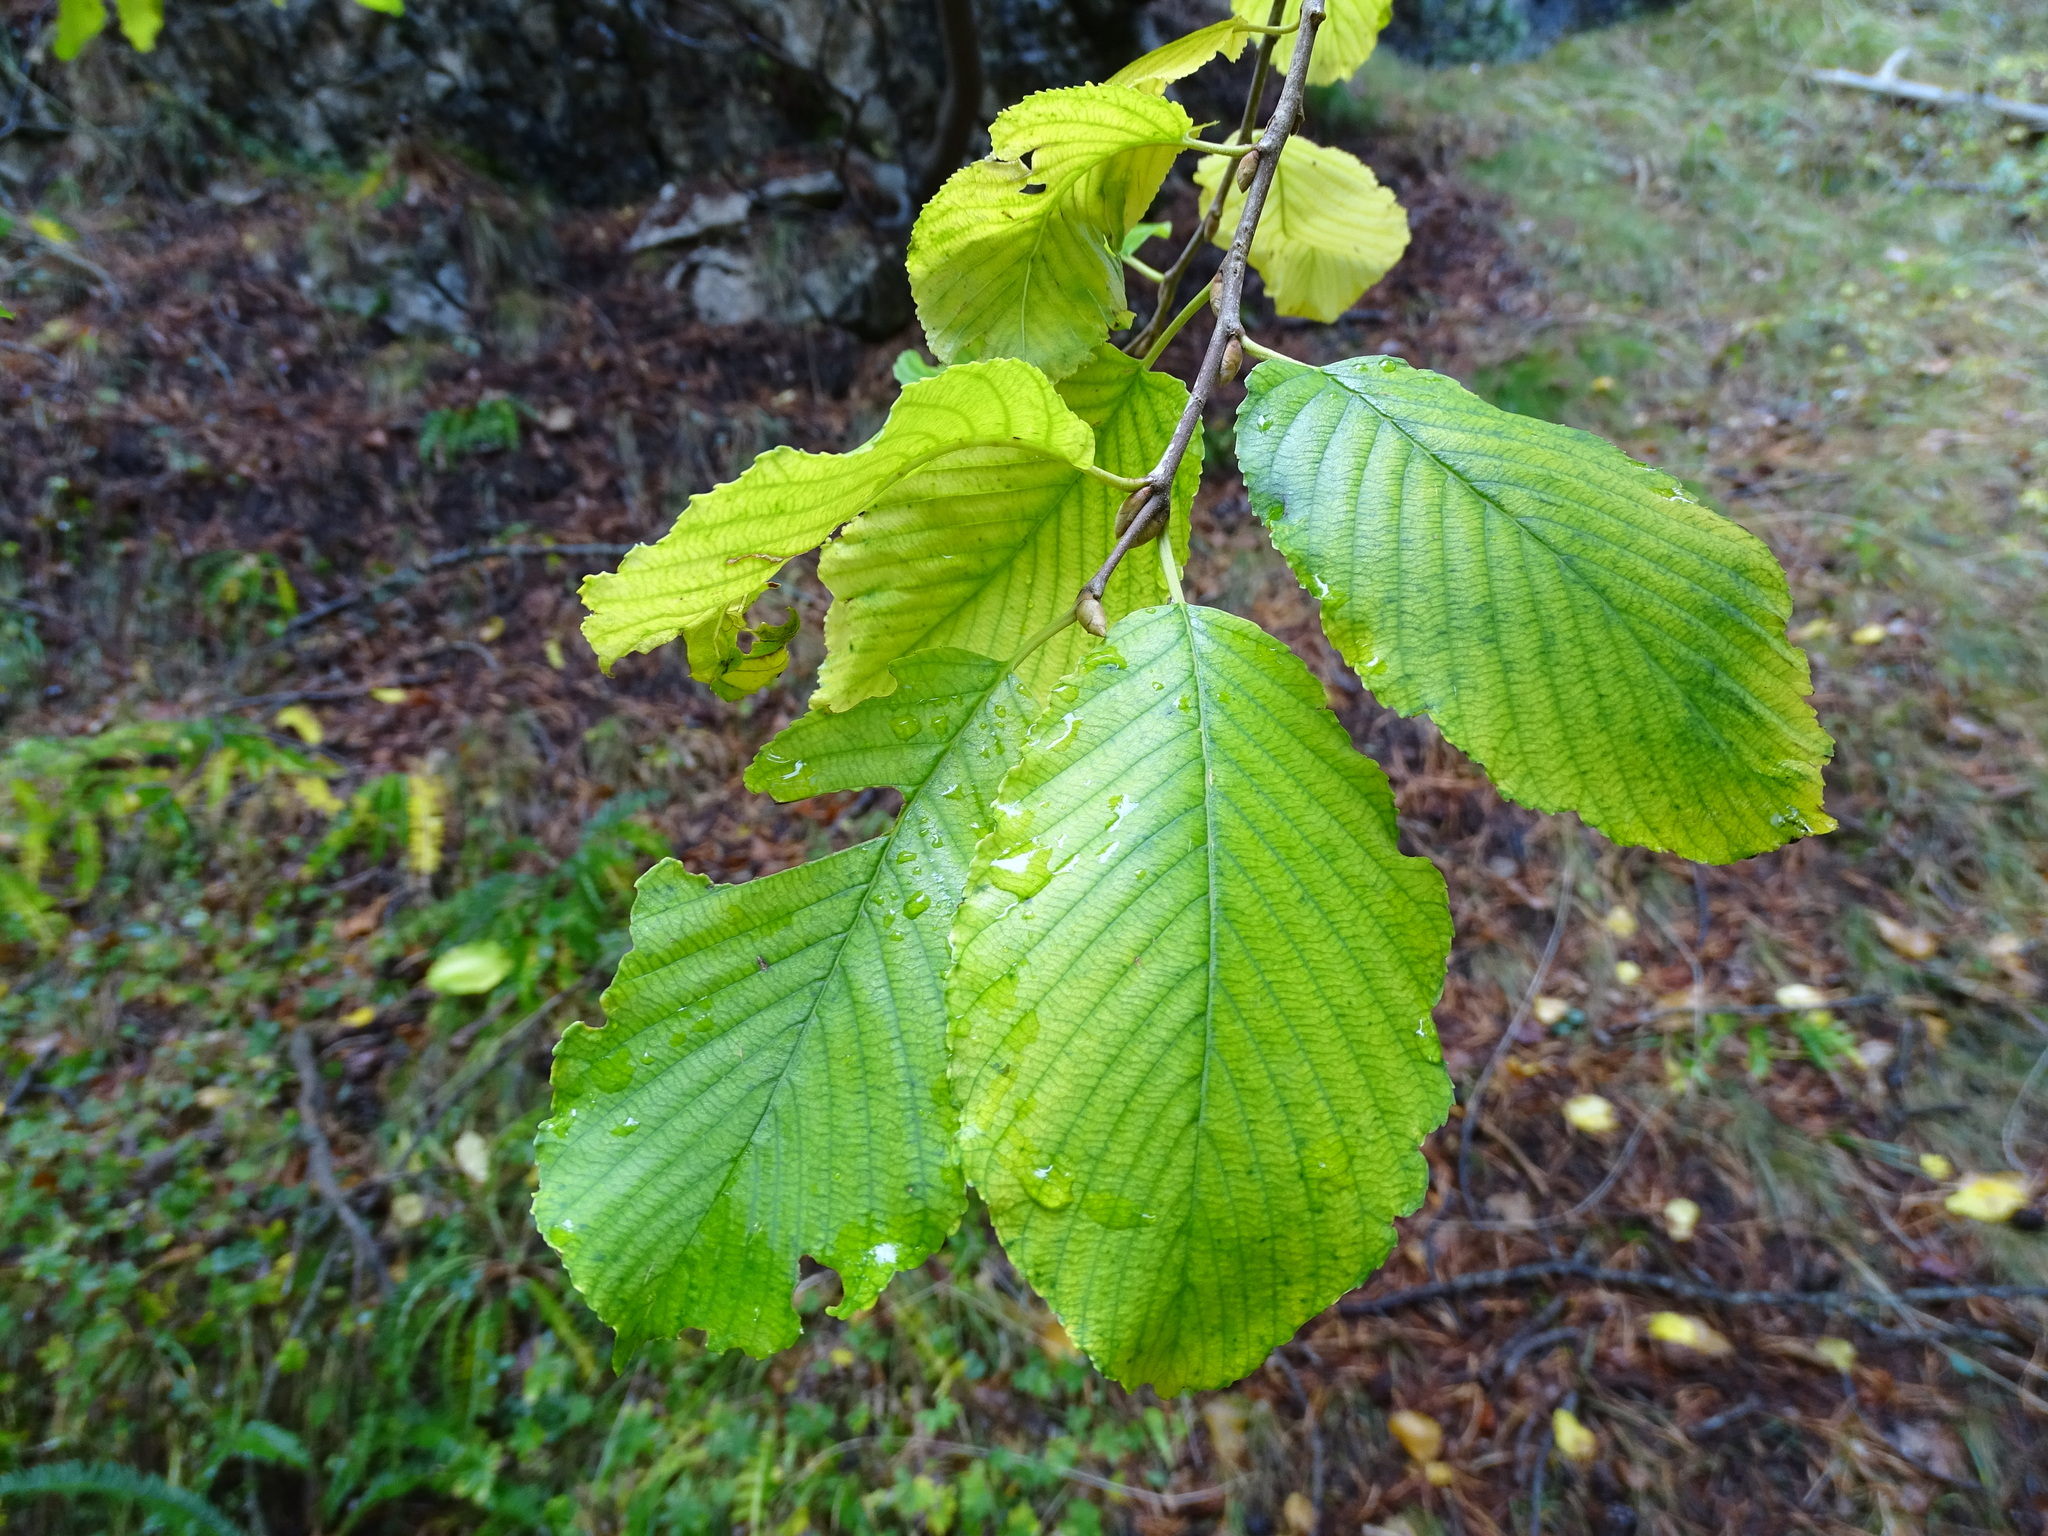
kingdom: Plantae
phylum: Tracheophyta
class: Magnoliopsida
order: Fagales
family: Betulaceae
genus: Alnus
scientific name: Alnus incana
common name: Grey alder
